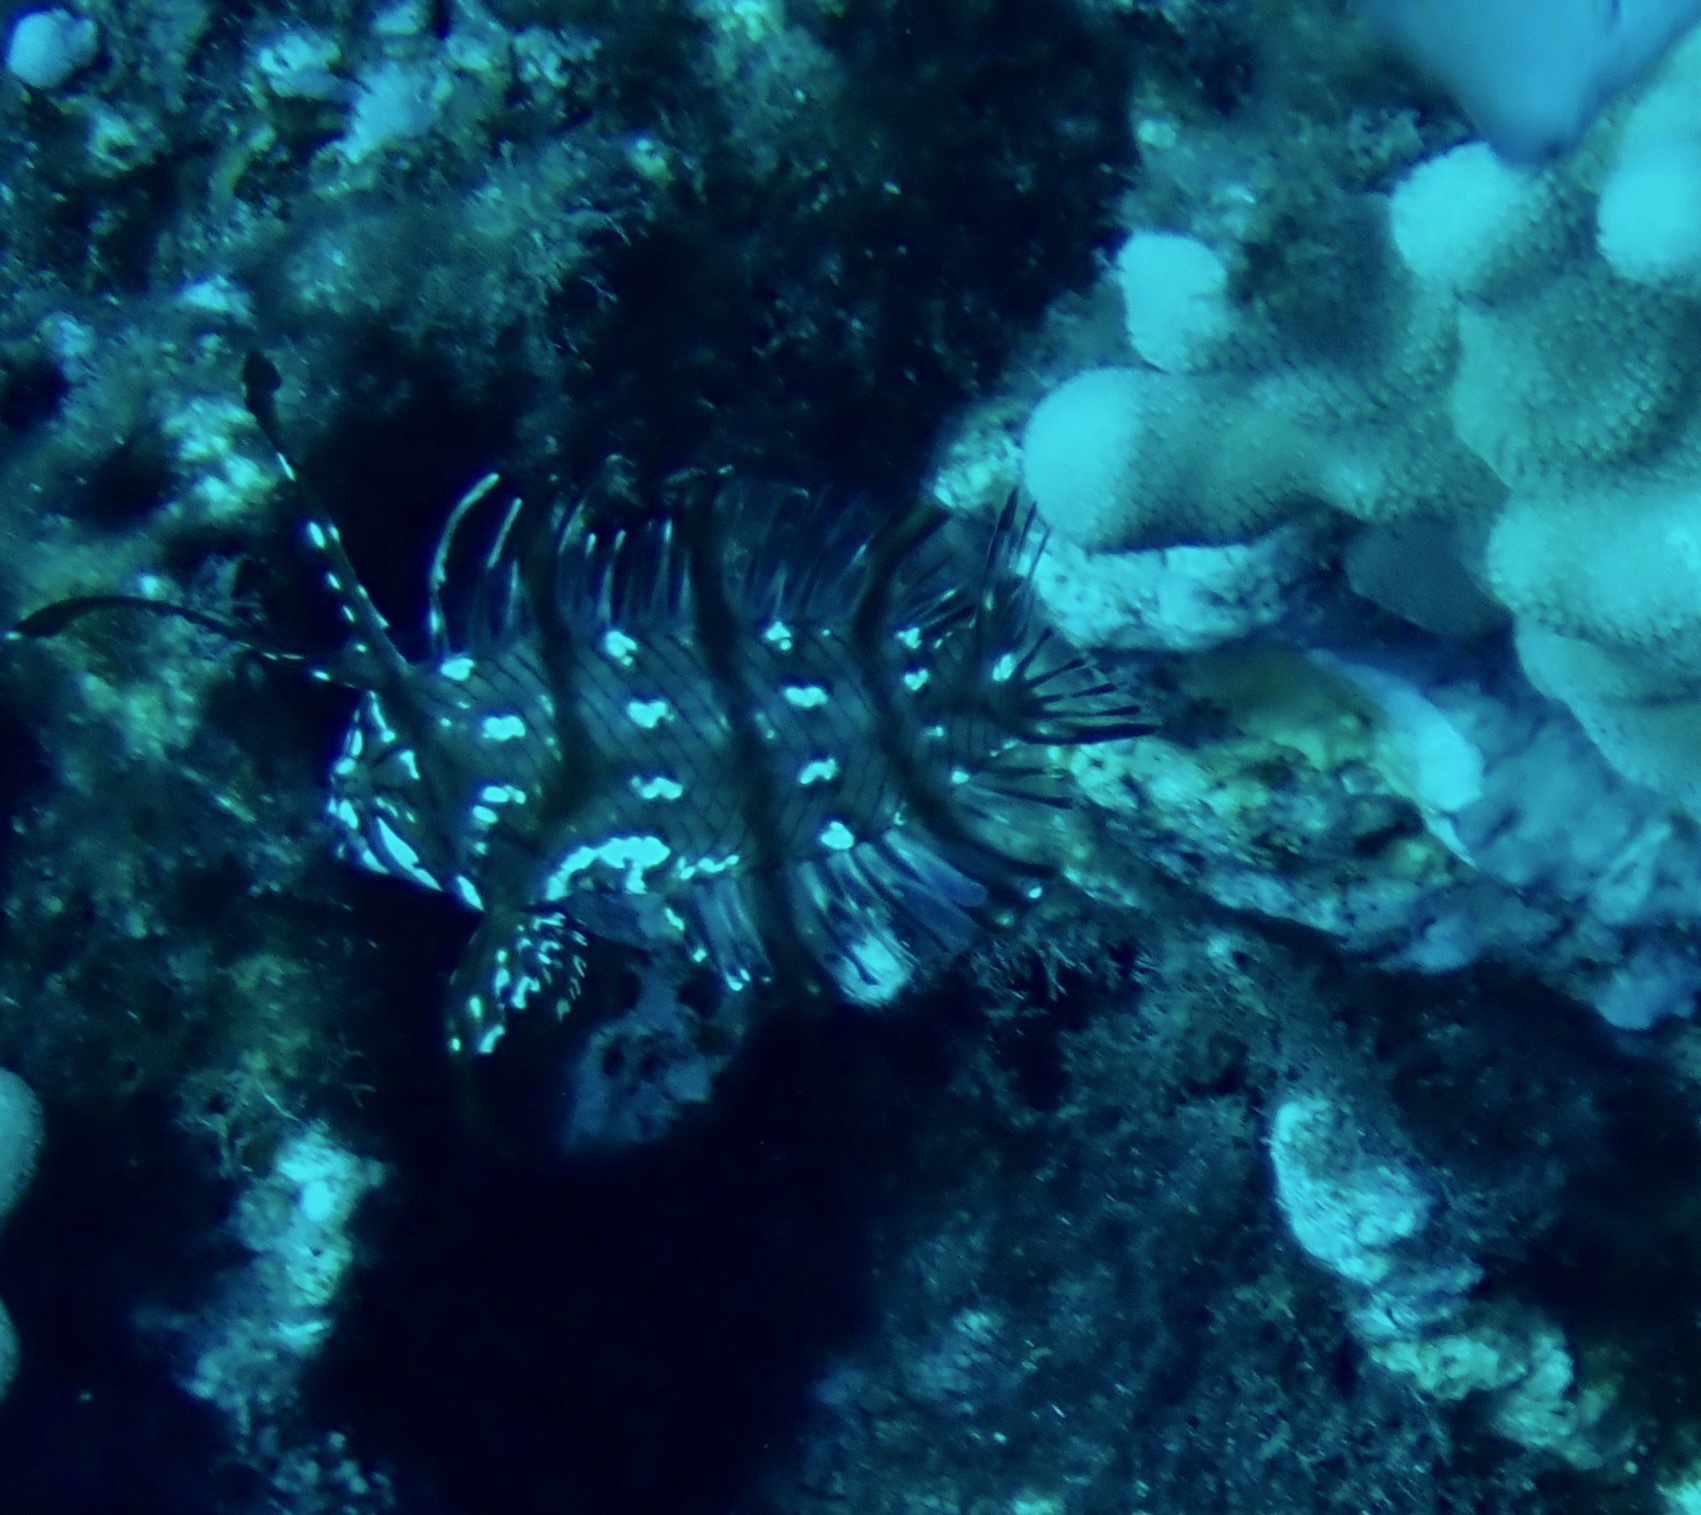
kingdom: Animalia
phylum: Chordata
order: Perciformes
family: Labridae
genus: Novaculichthys
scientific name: Novaculichthys taeniourus
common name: Rockmover wrasse
